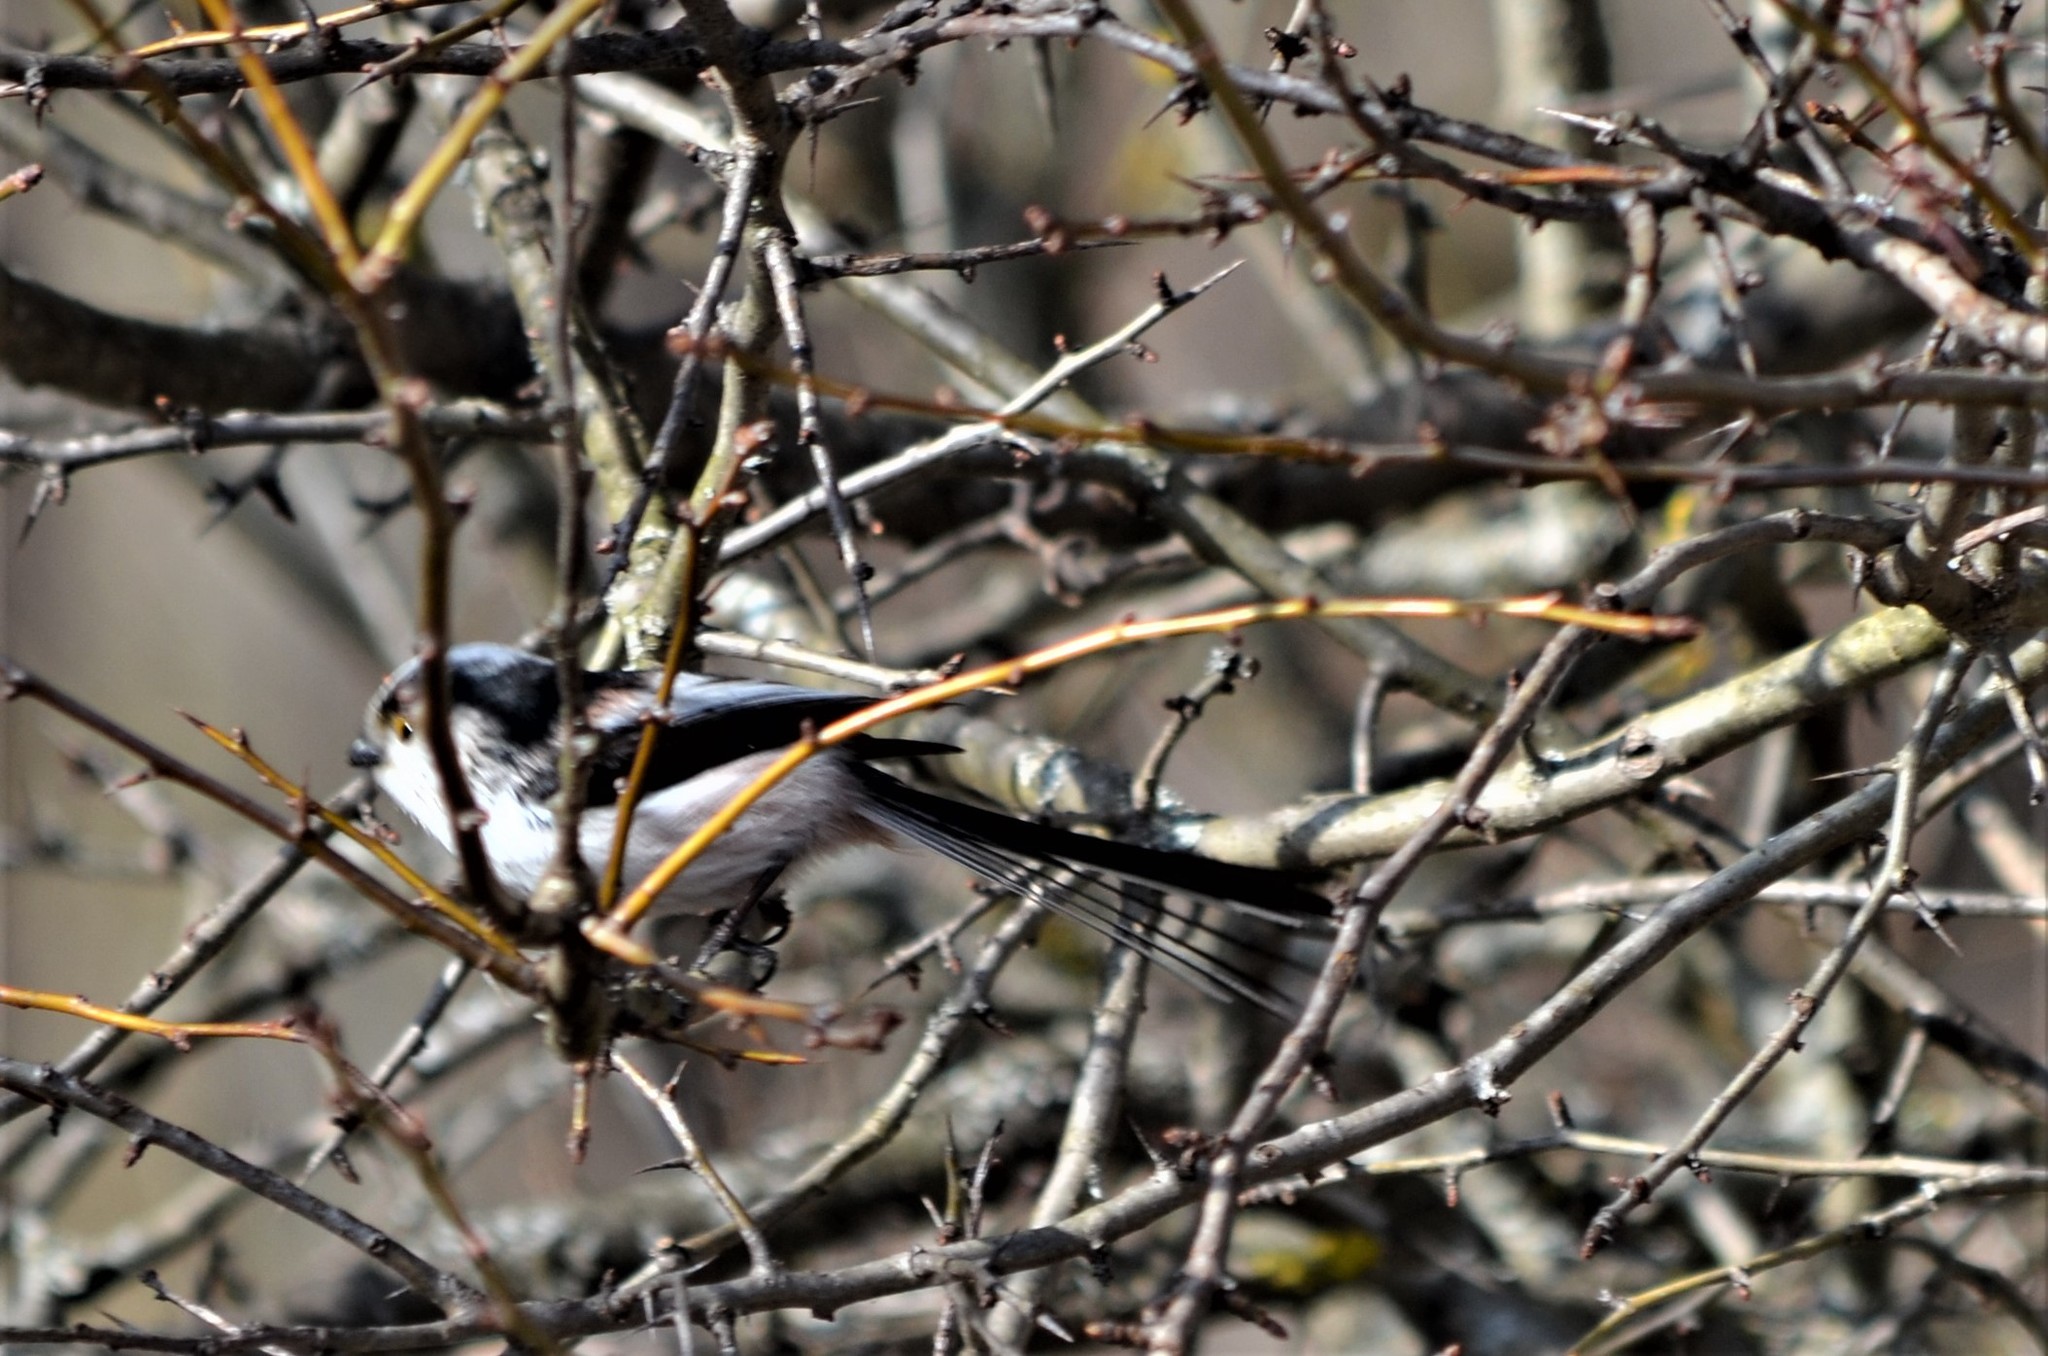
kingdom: Animalia
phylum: Chordata
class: Aves
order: Passeriformes
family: Aegithalidae
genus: Aegithalos
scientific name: Aegithalos caudatus
